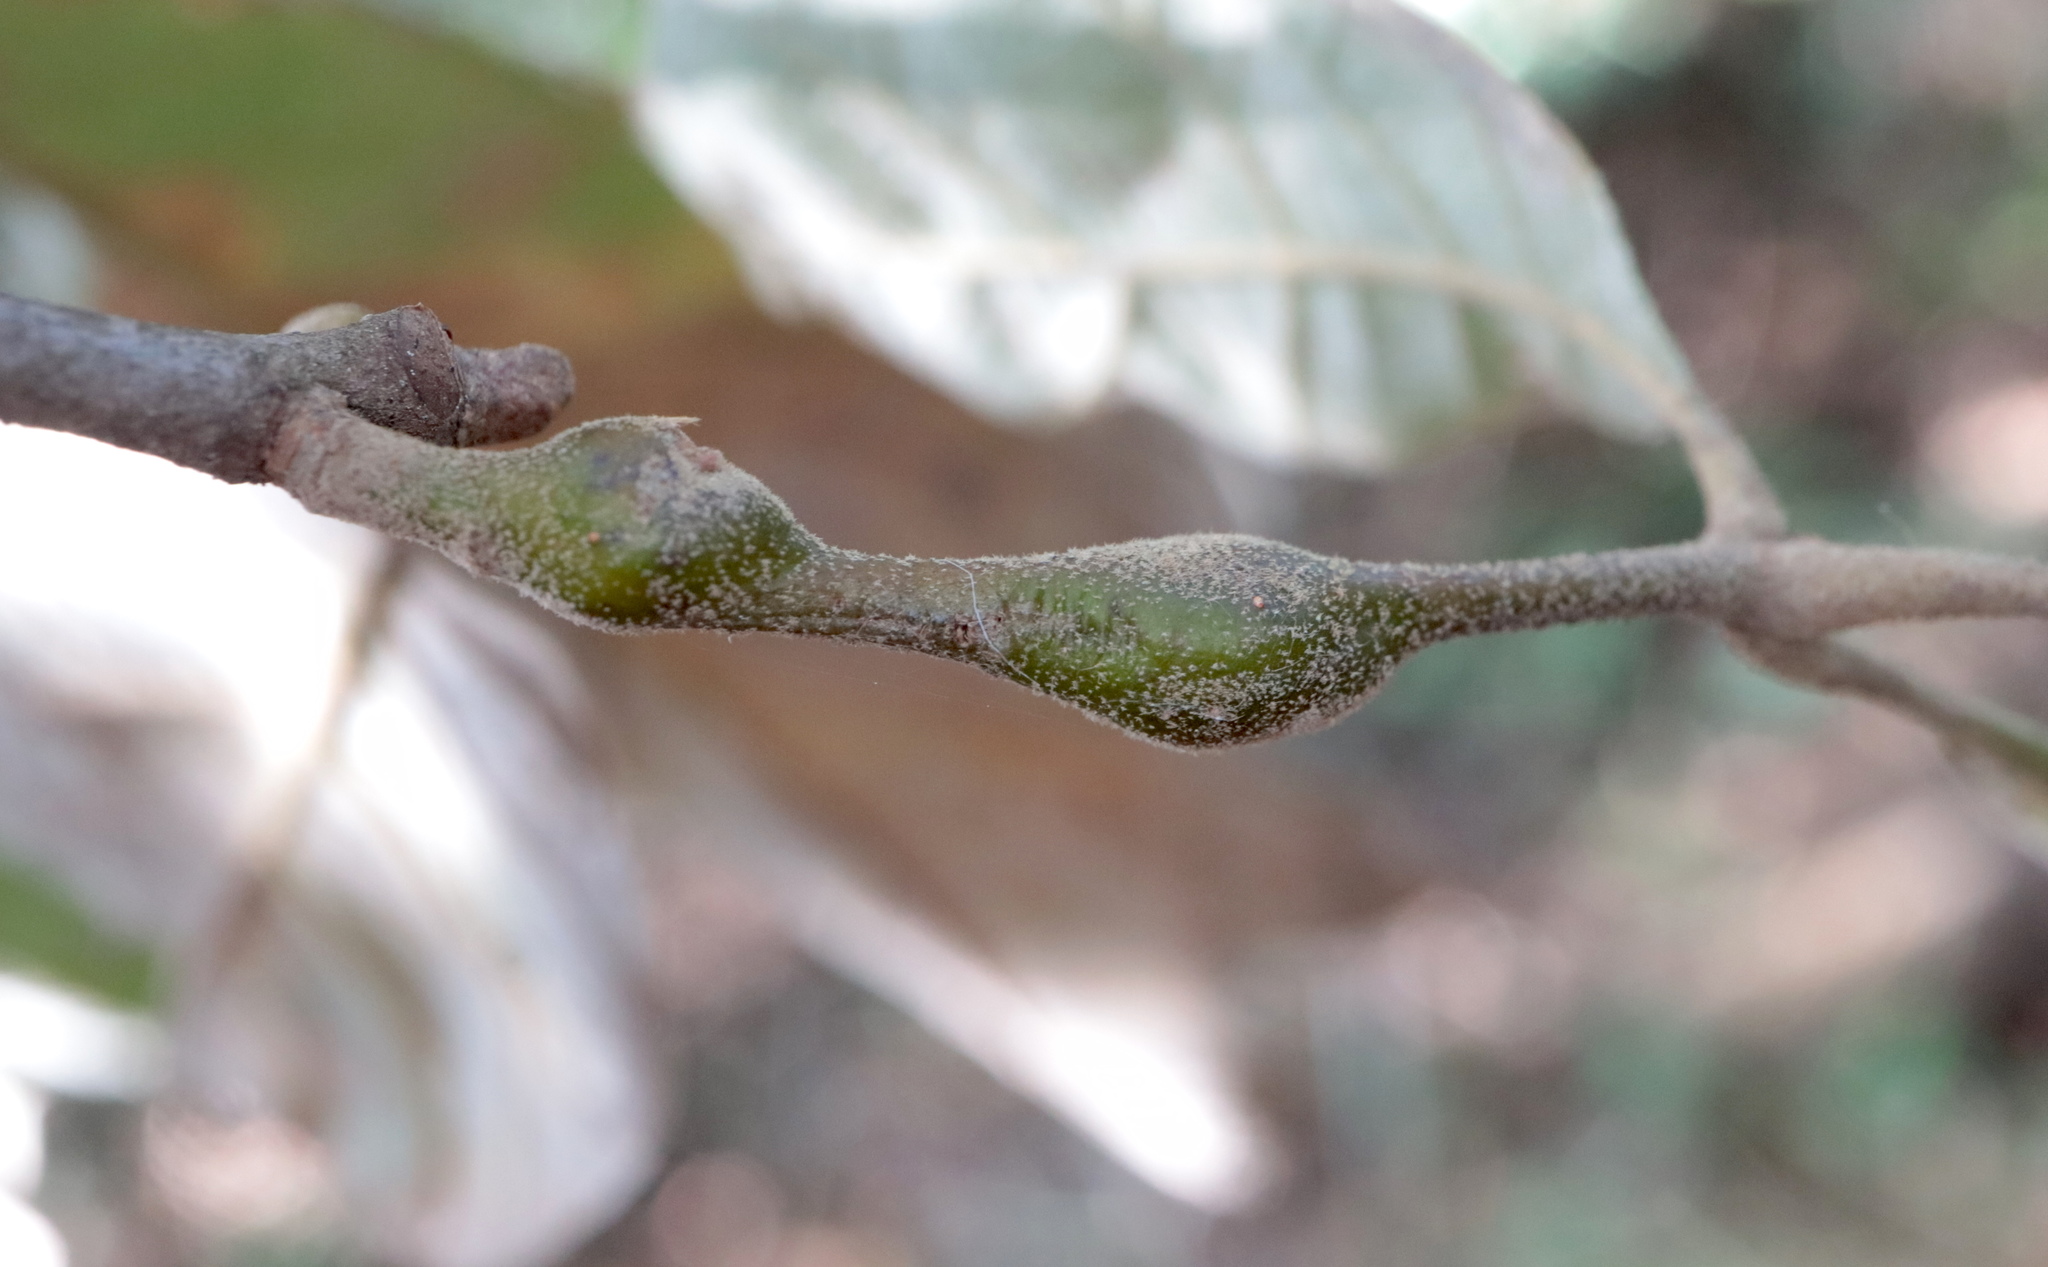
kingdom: Animalia
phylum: Arthropoda
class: Insecta
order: Hymenoptera
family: Cynipidae
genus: Zapatella
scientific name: Zapatella quercusmedullae
